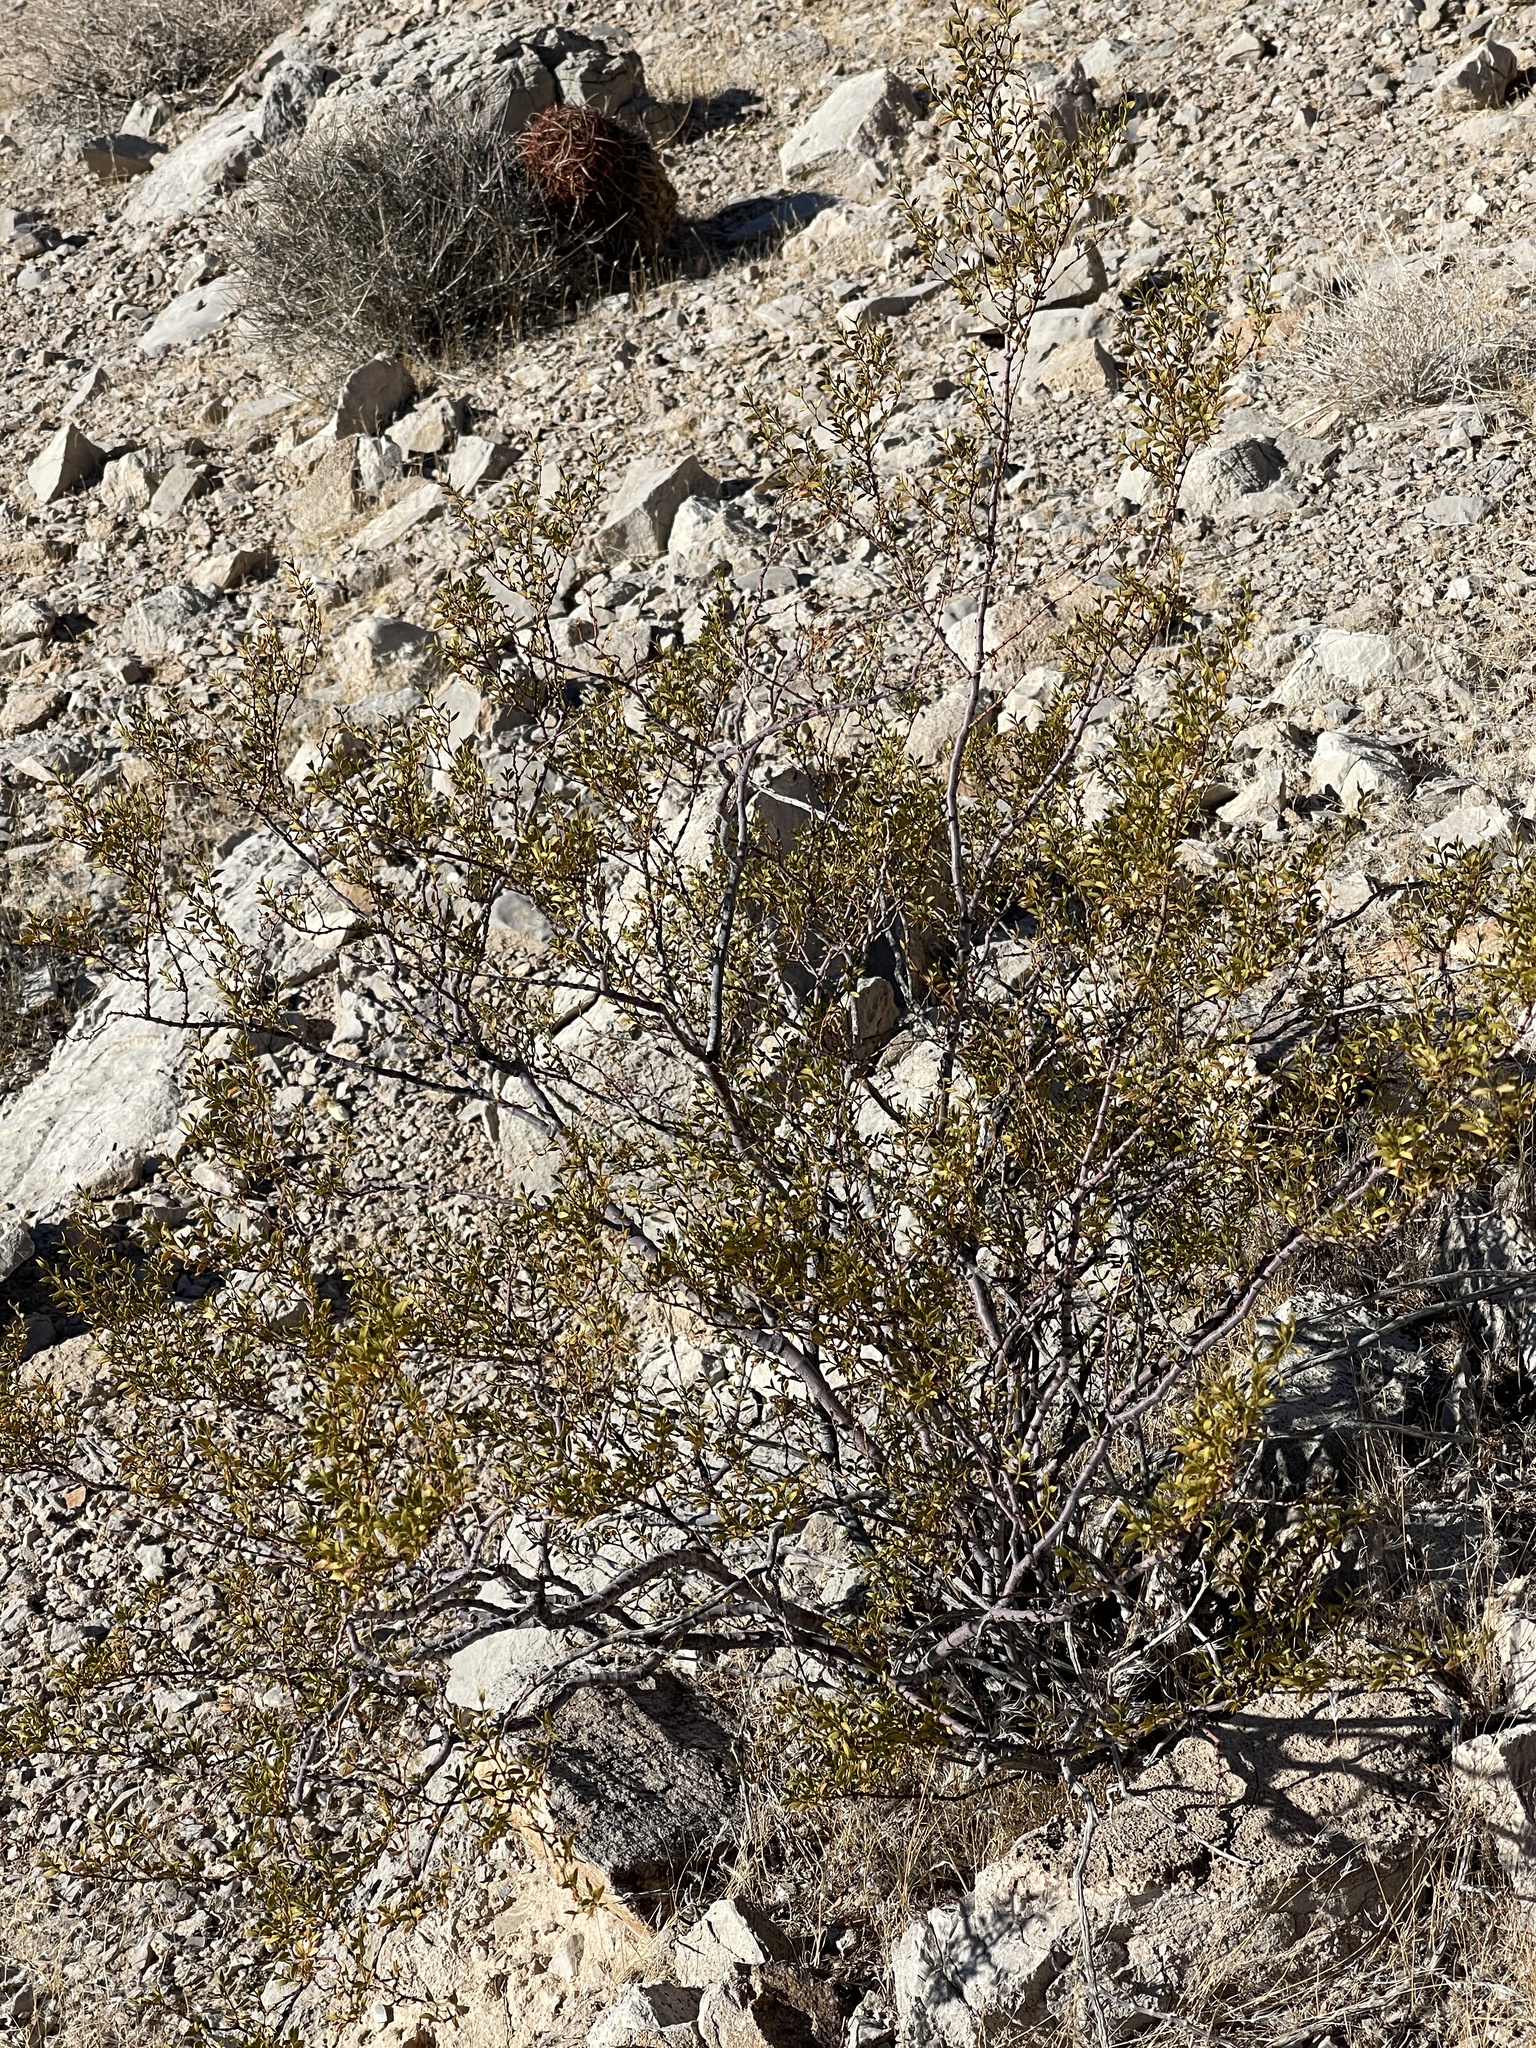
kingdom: Plantae
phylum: Tracheophyta
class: Magnoliopsida
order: Zygophyllales
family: Zygophyllaceae
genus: Larrea
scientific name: Larrea tridentata
